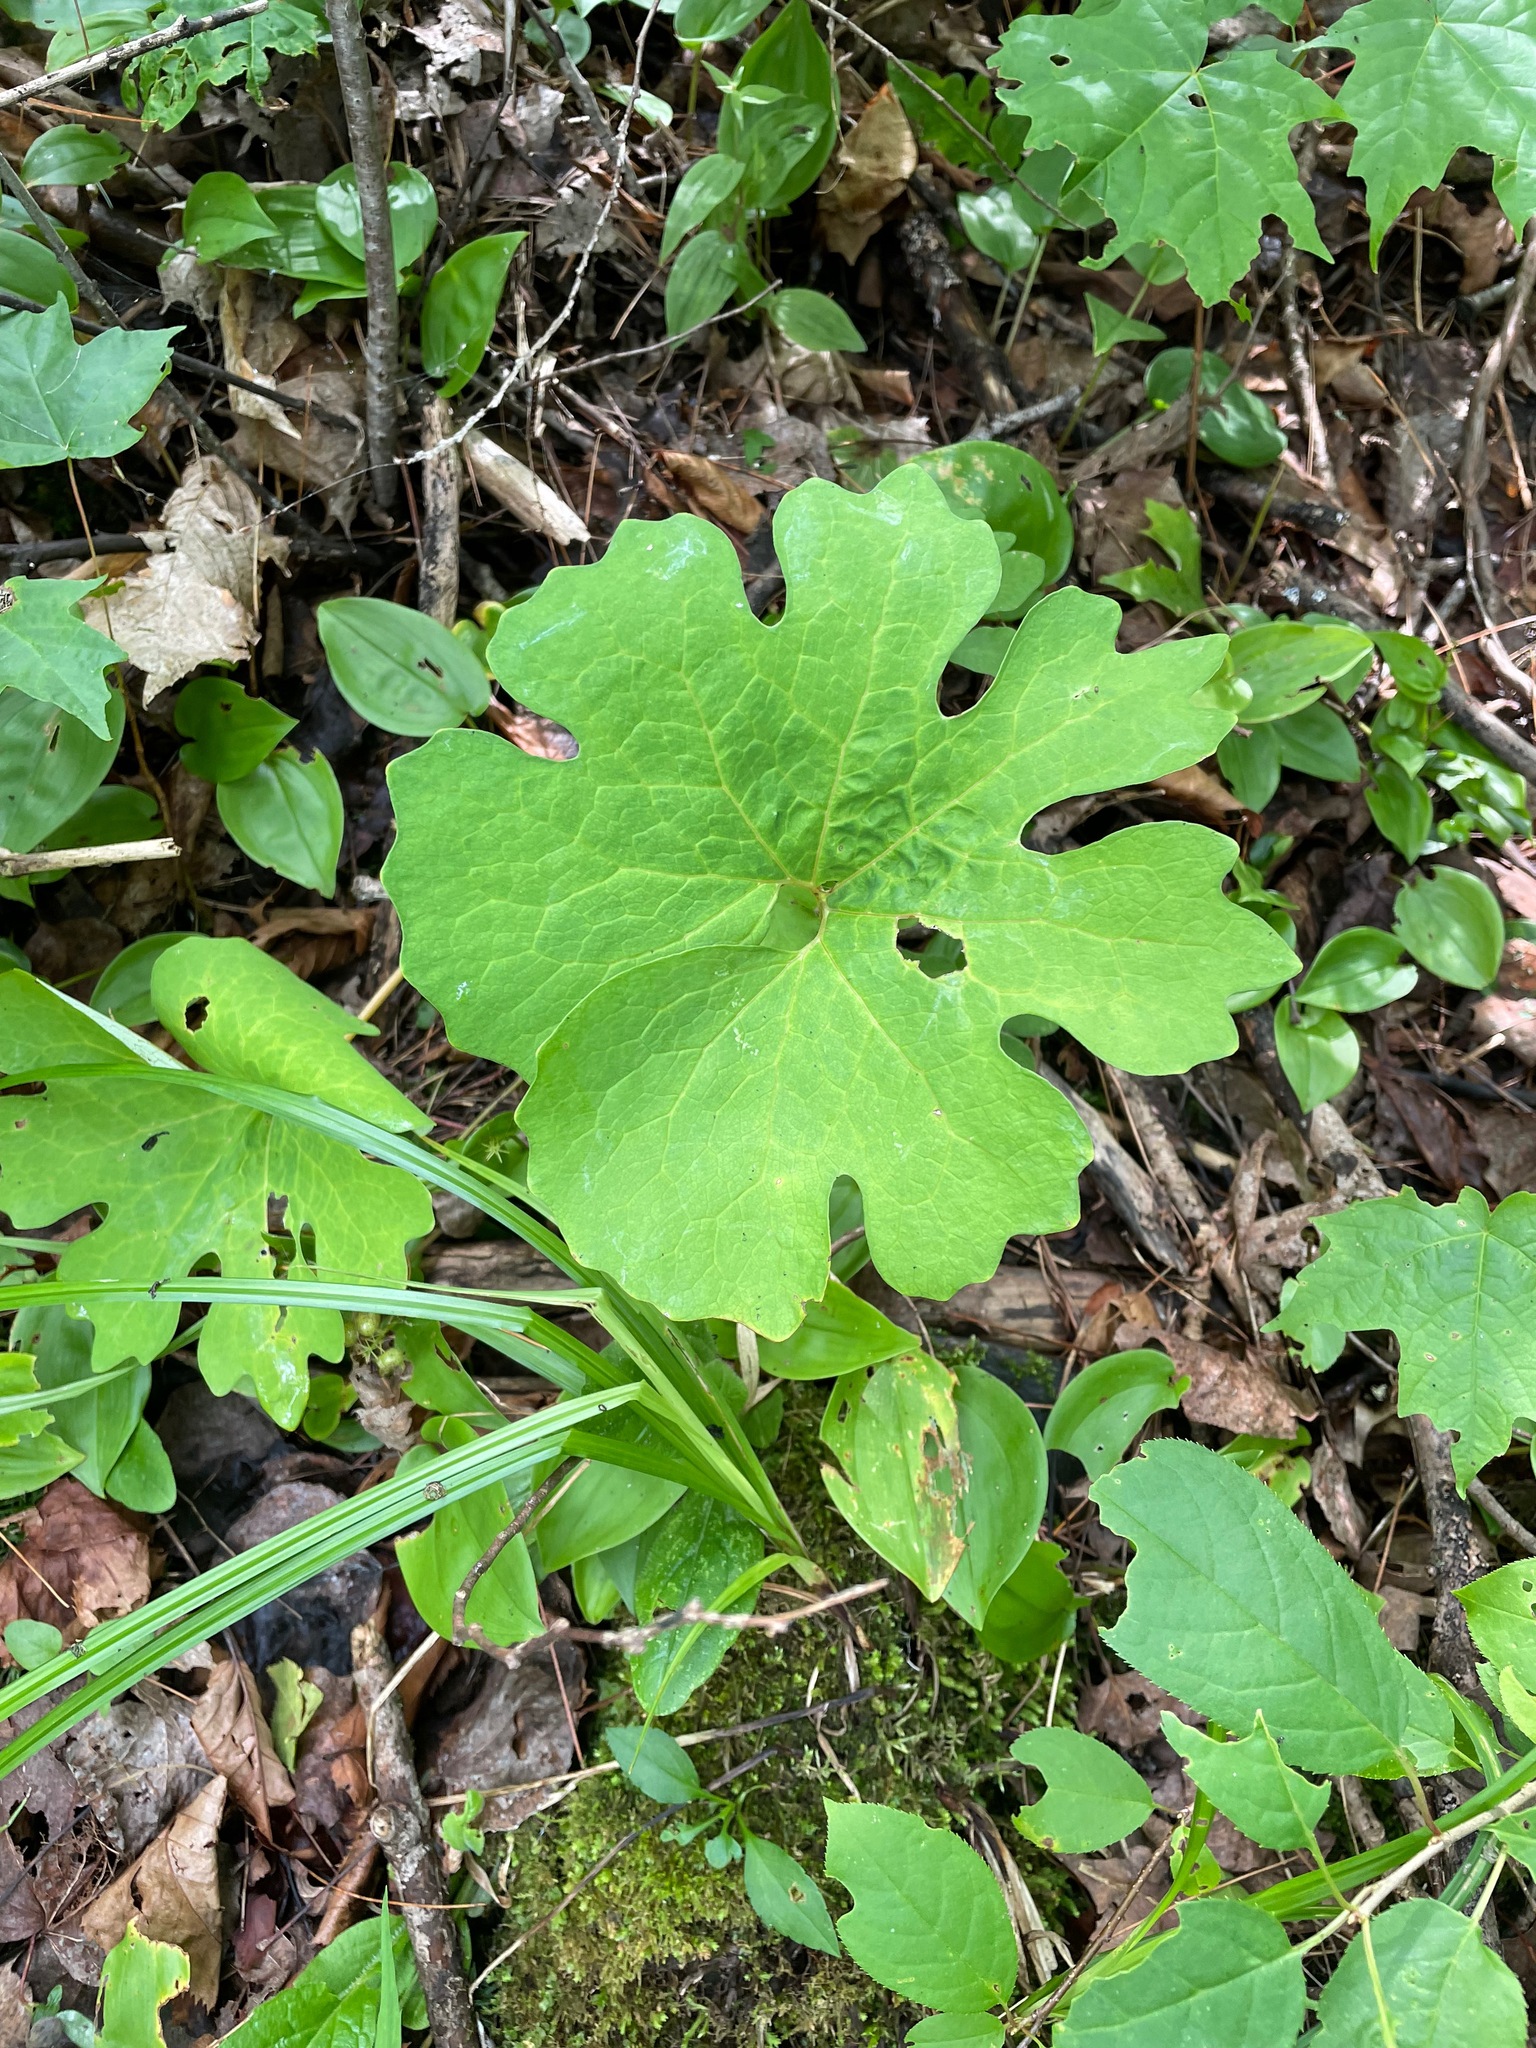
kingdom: Plantae
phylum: Tracheophyta
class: Magnoliopsida
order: Ranunculales
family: Papaveraceae
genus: Sanguinaria
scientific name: Sanguinaria canadensis
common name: Bloodroot
